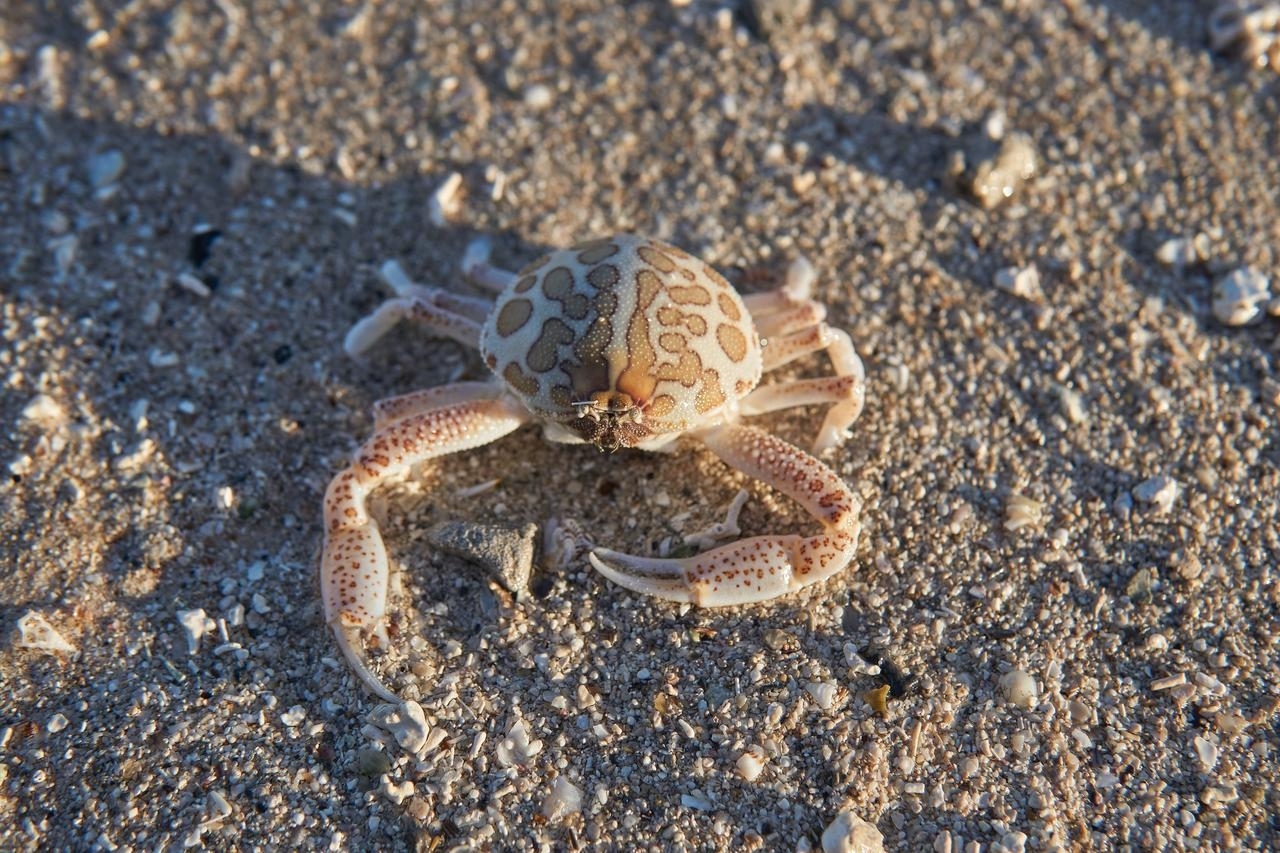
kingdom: Animalia
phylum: Arthropoda
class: Malacostraca
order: Decapoda
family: Leucosiidae
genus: Persephona
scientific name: Persephona mediterranea
